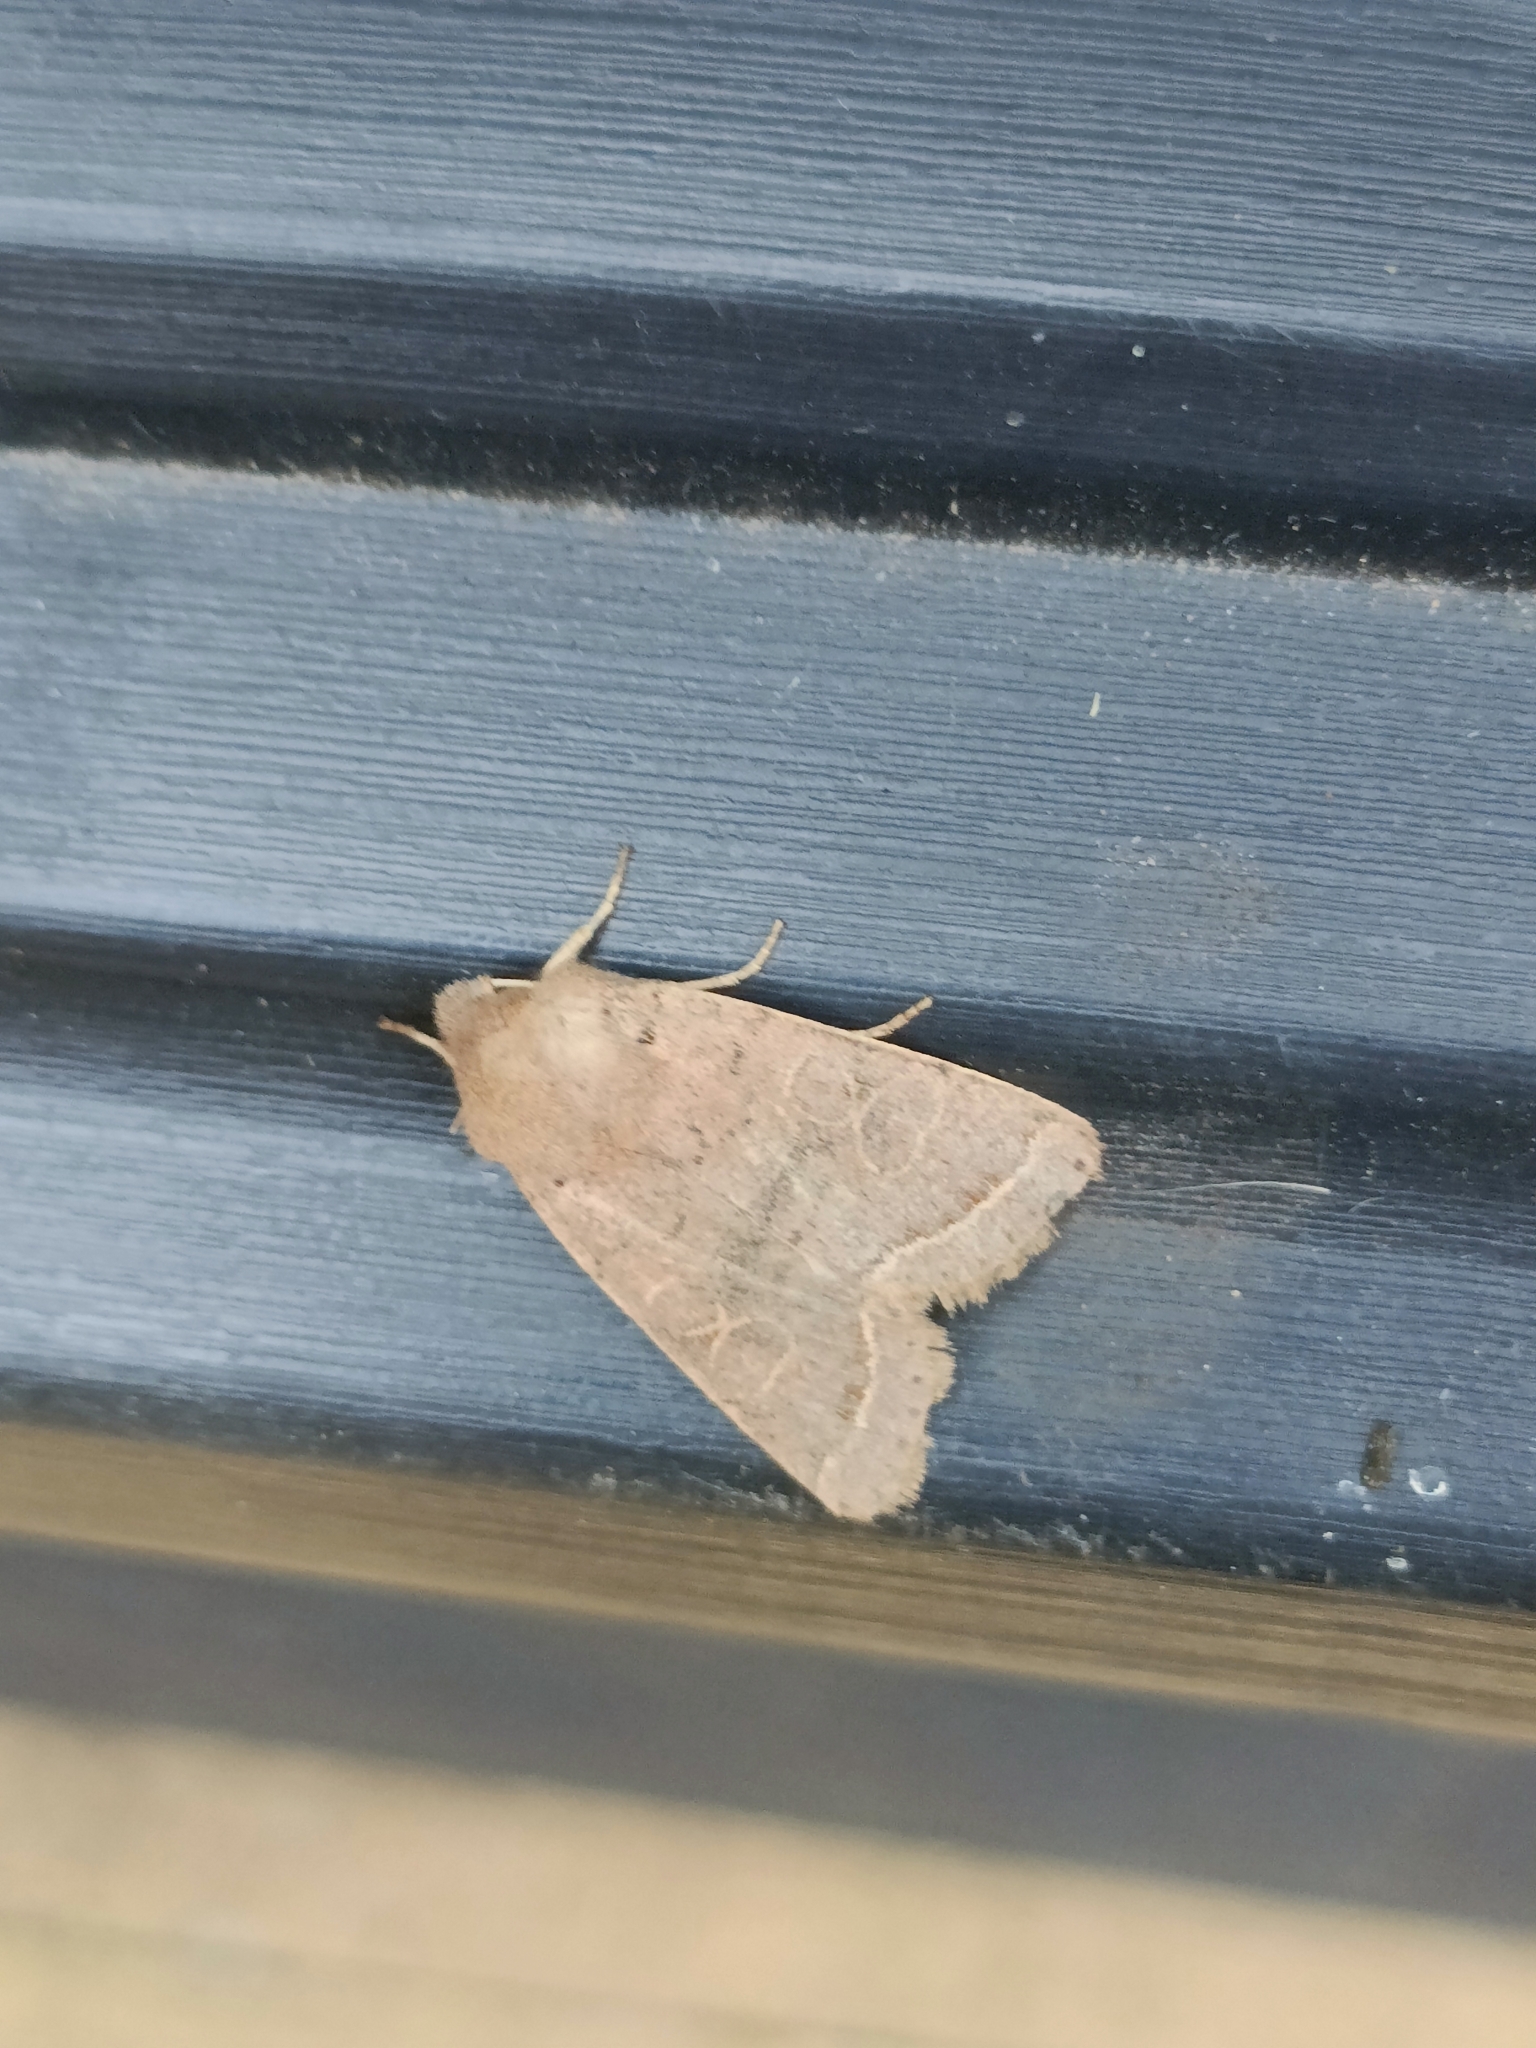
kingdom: Animalia
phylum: Arthropoda
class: Insecta
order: Lepidoptera
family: Noctuidae
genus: Orthosia
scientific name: Orthosia cerasi
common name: Common quaker
